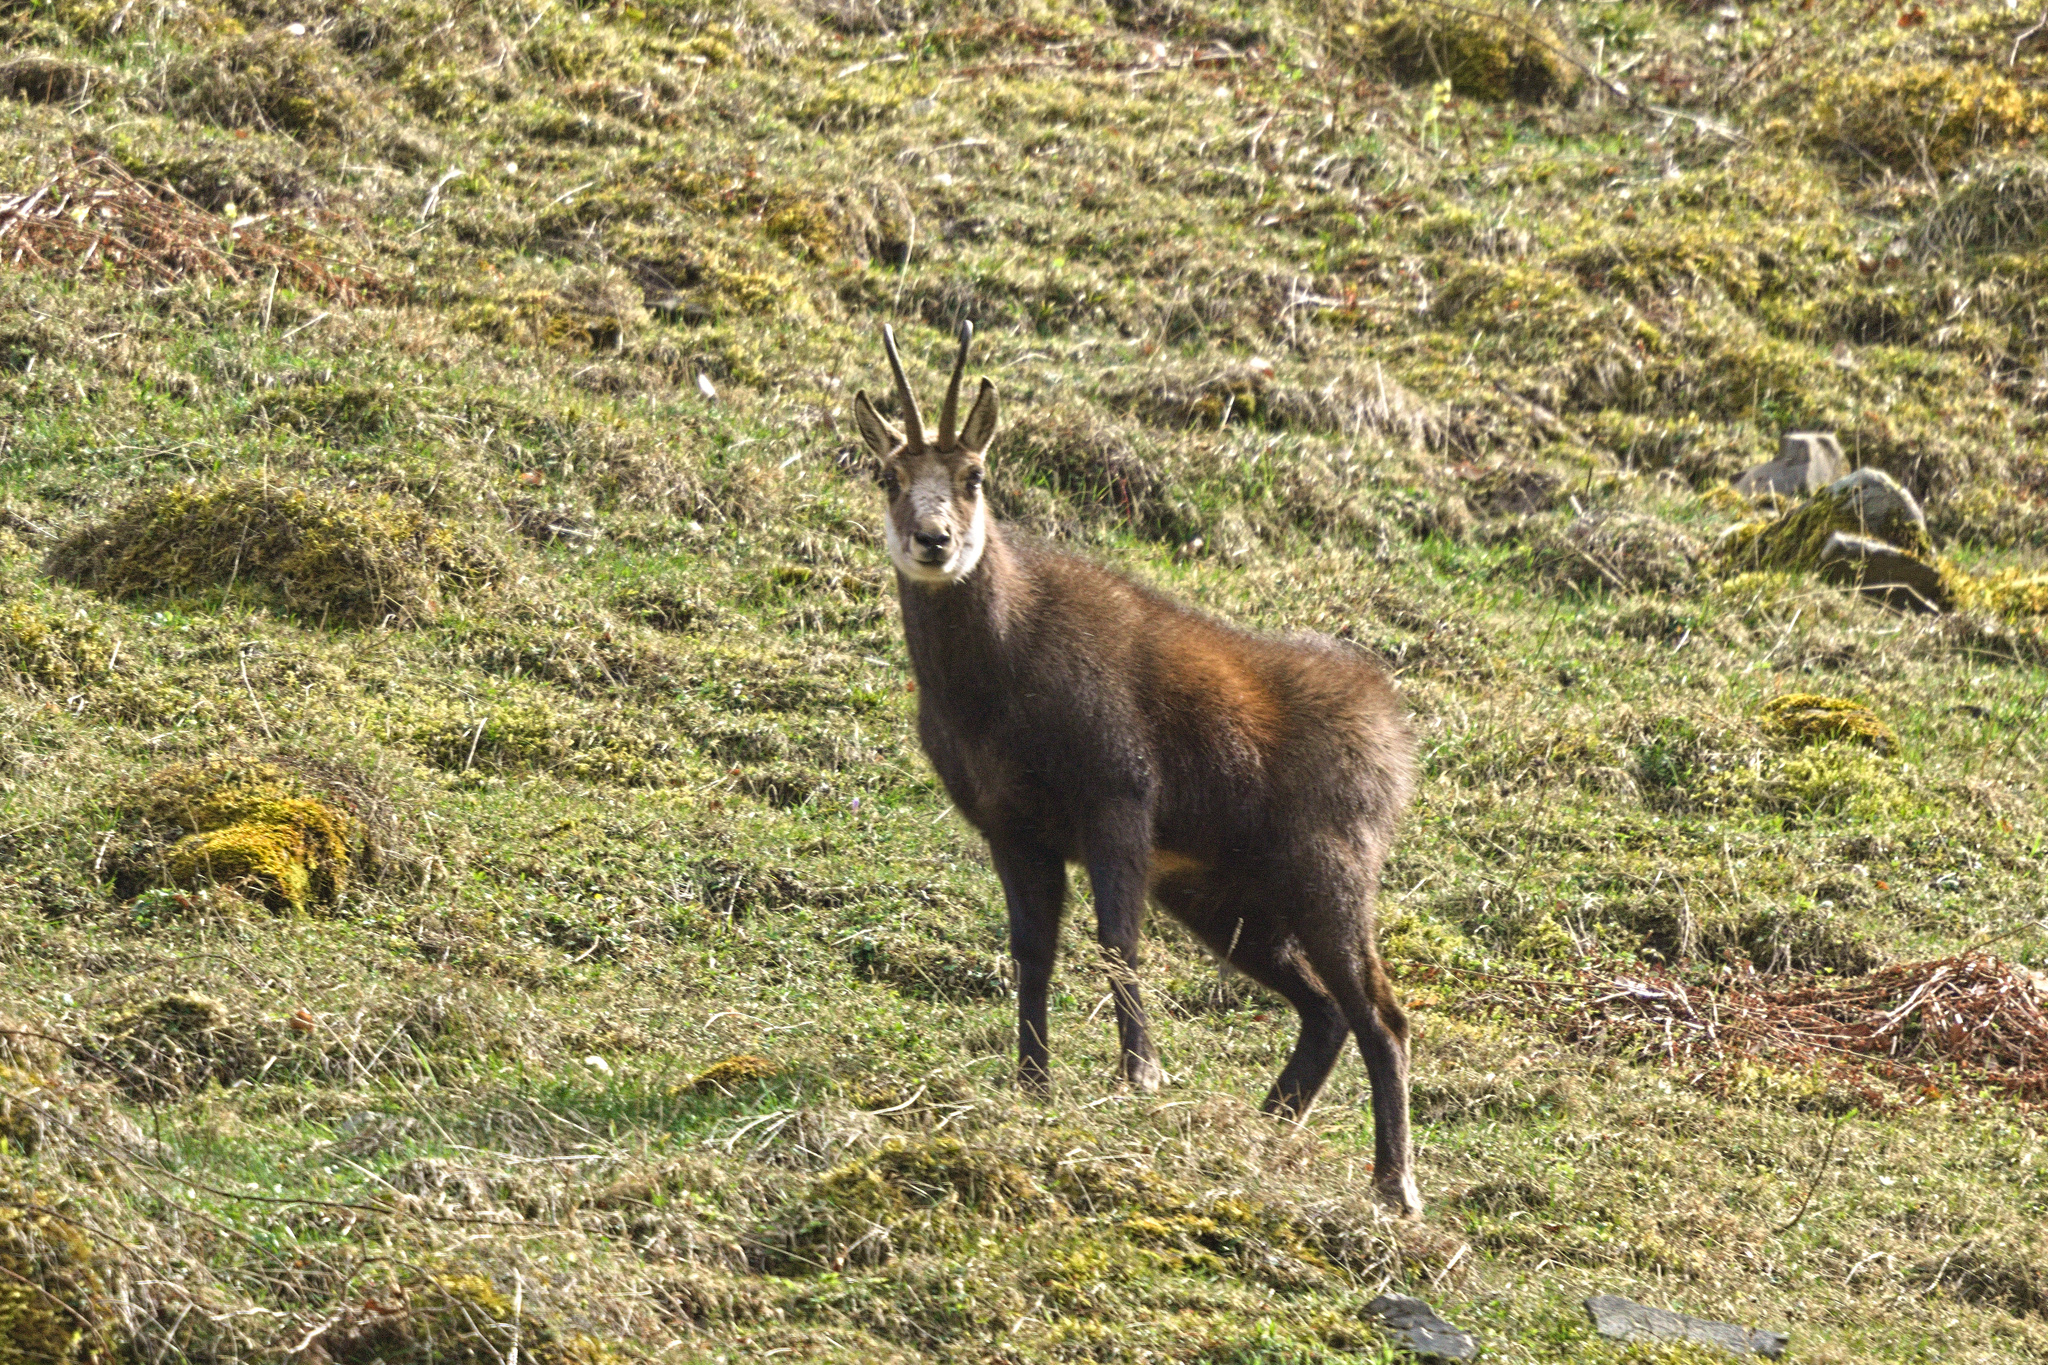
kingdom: Animalia
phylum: Chordata
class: Mammalia
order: Artiodactyla
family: Bovidae
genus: Rupicapra
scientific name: Rupicapra rupicapra
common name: Chamois
